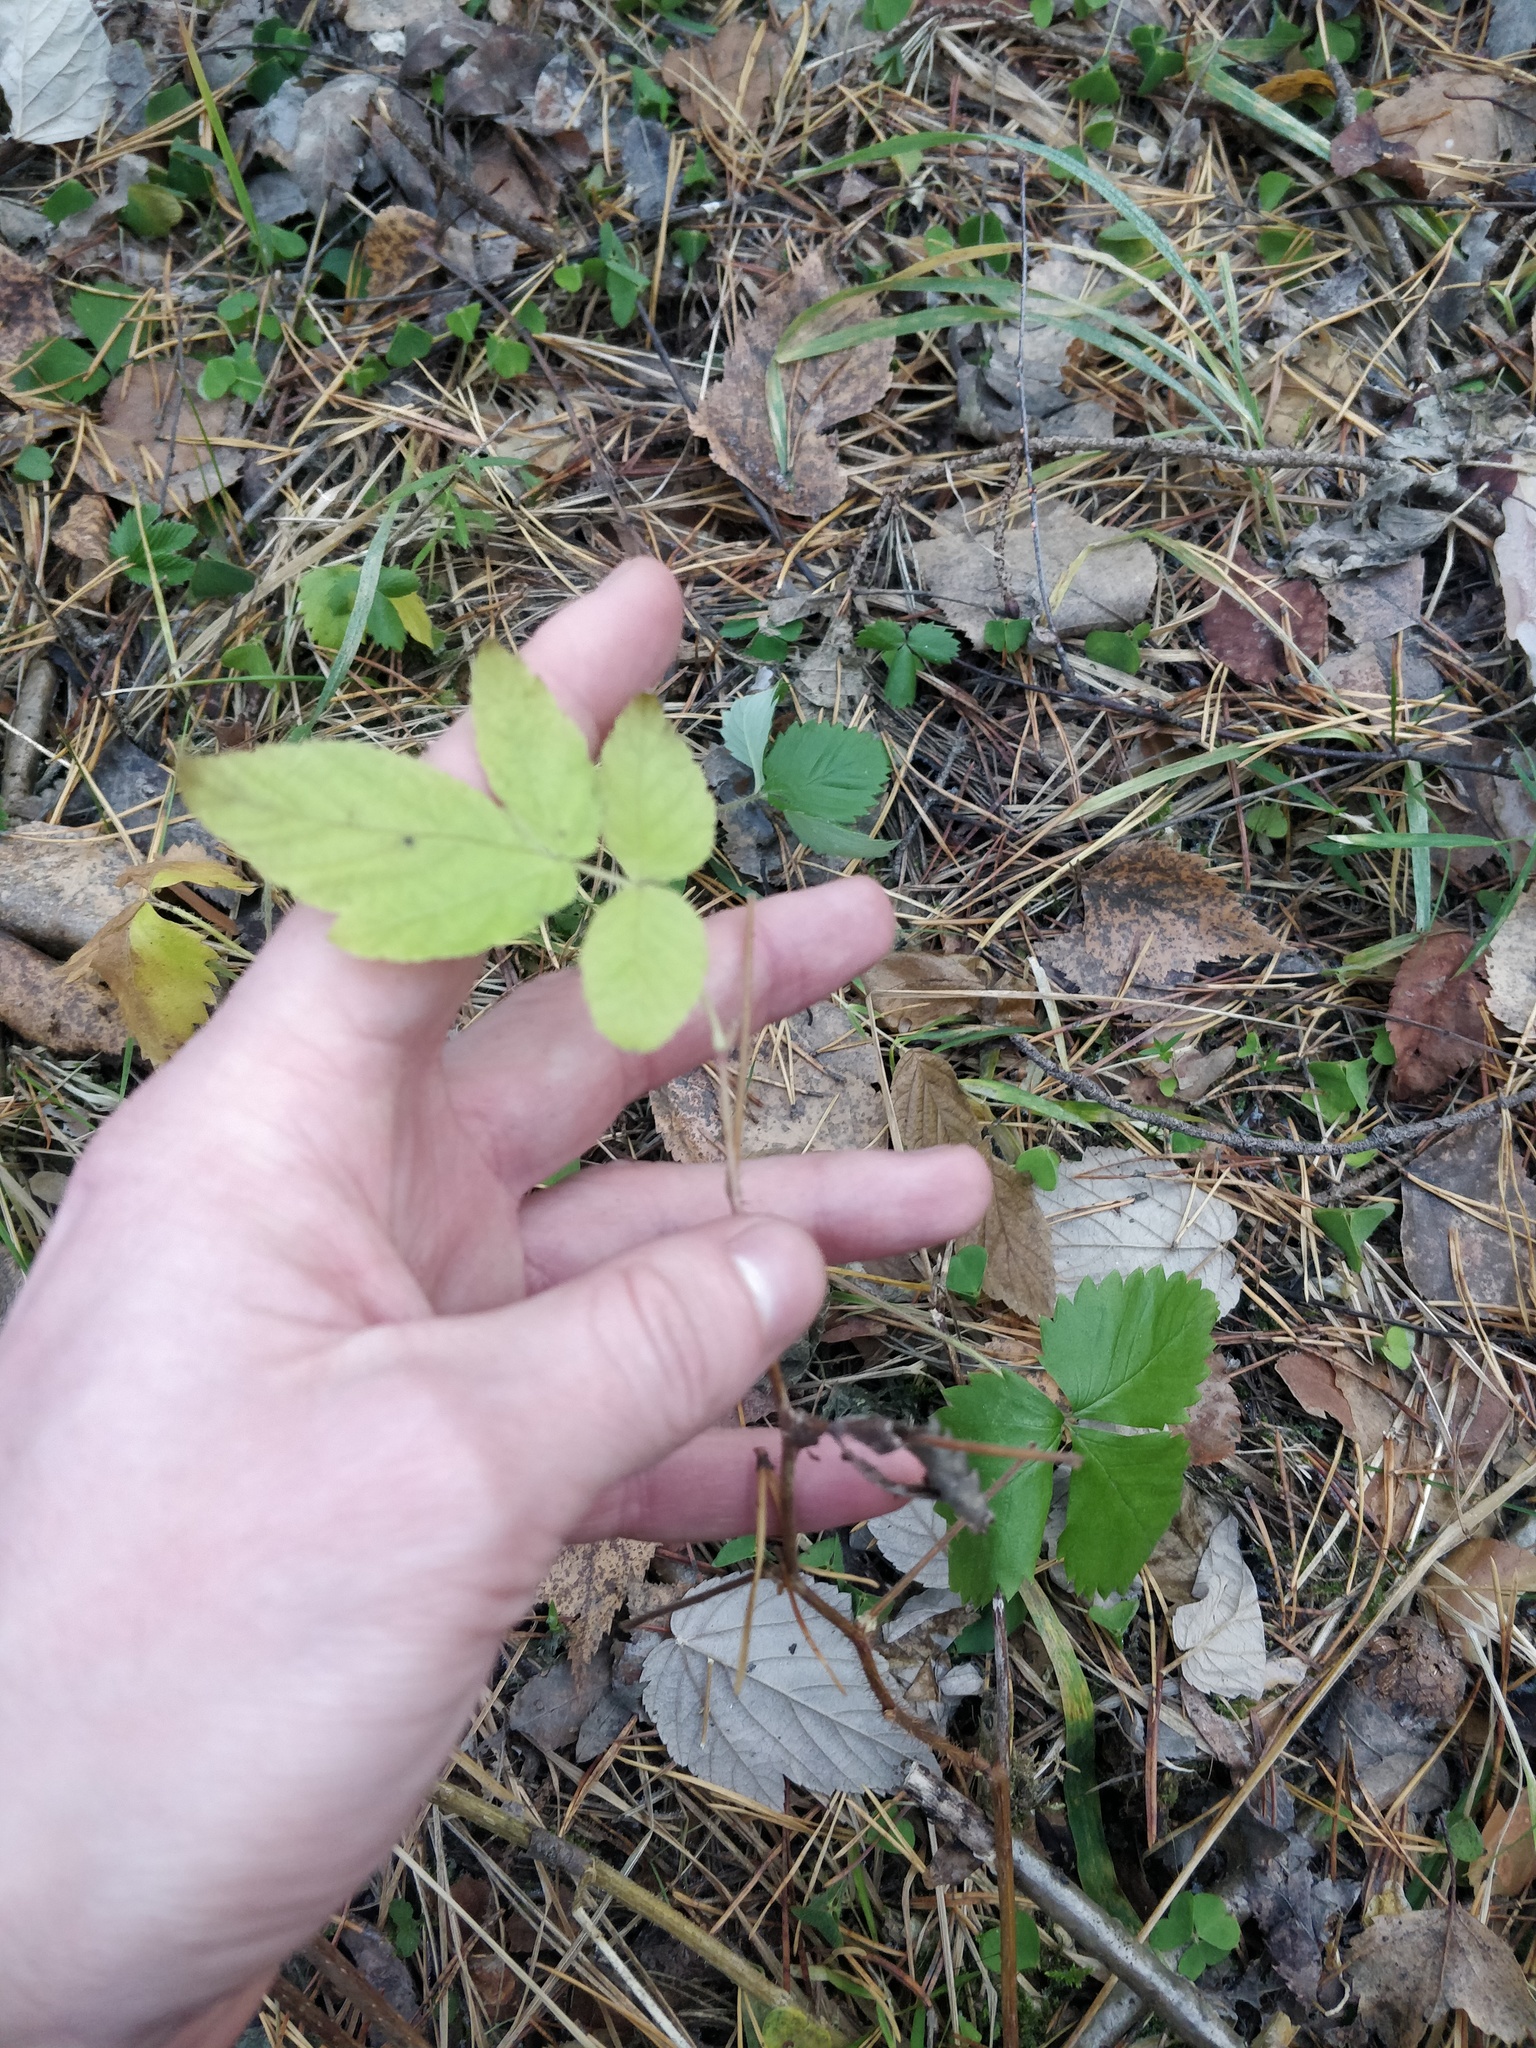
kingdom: Plantae
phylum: Tracheophyta
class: Magnoliopsida
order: Rosales
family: Rosaceae
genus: Rubus
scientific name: Rubus idaeus
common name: Raspberry
